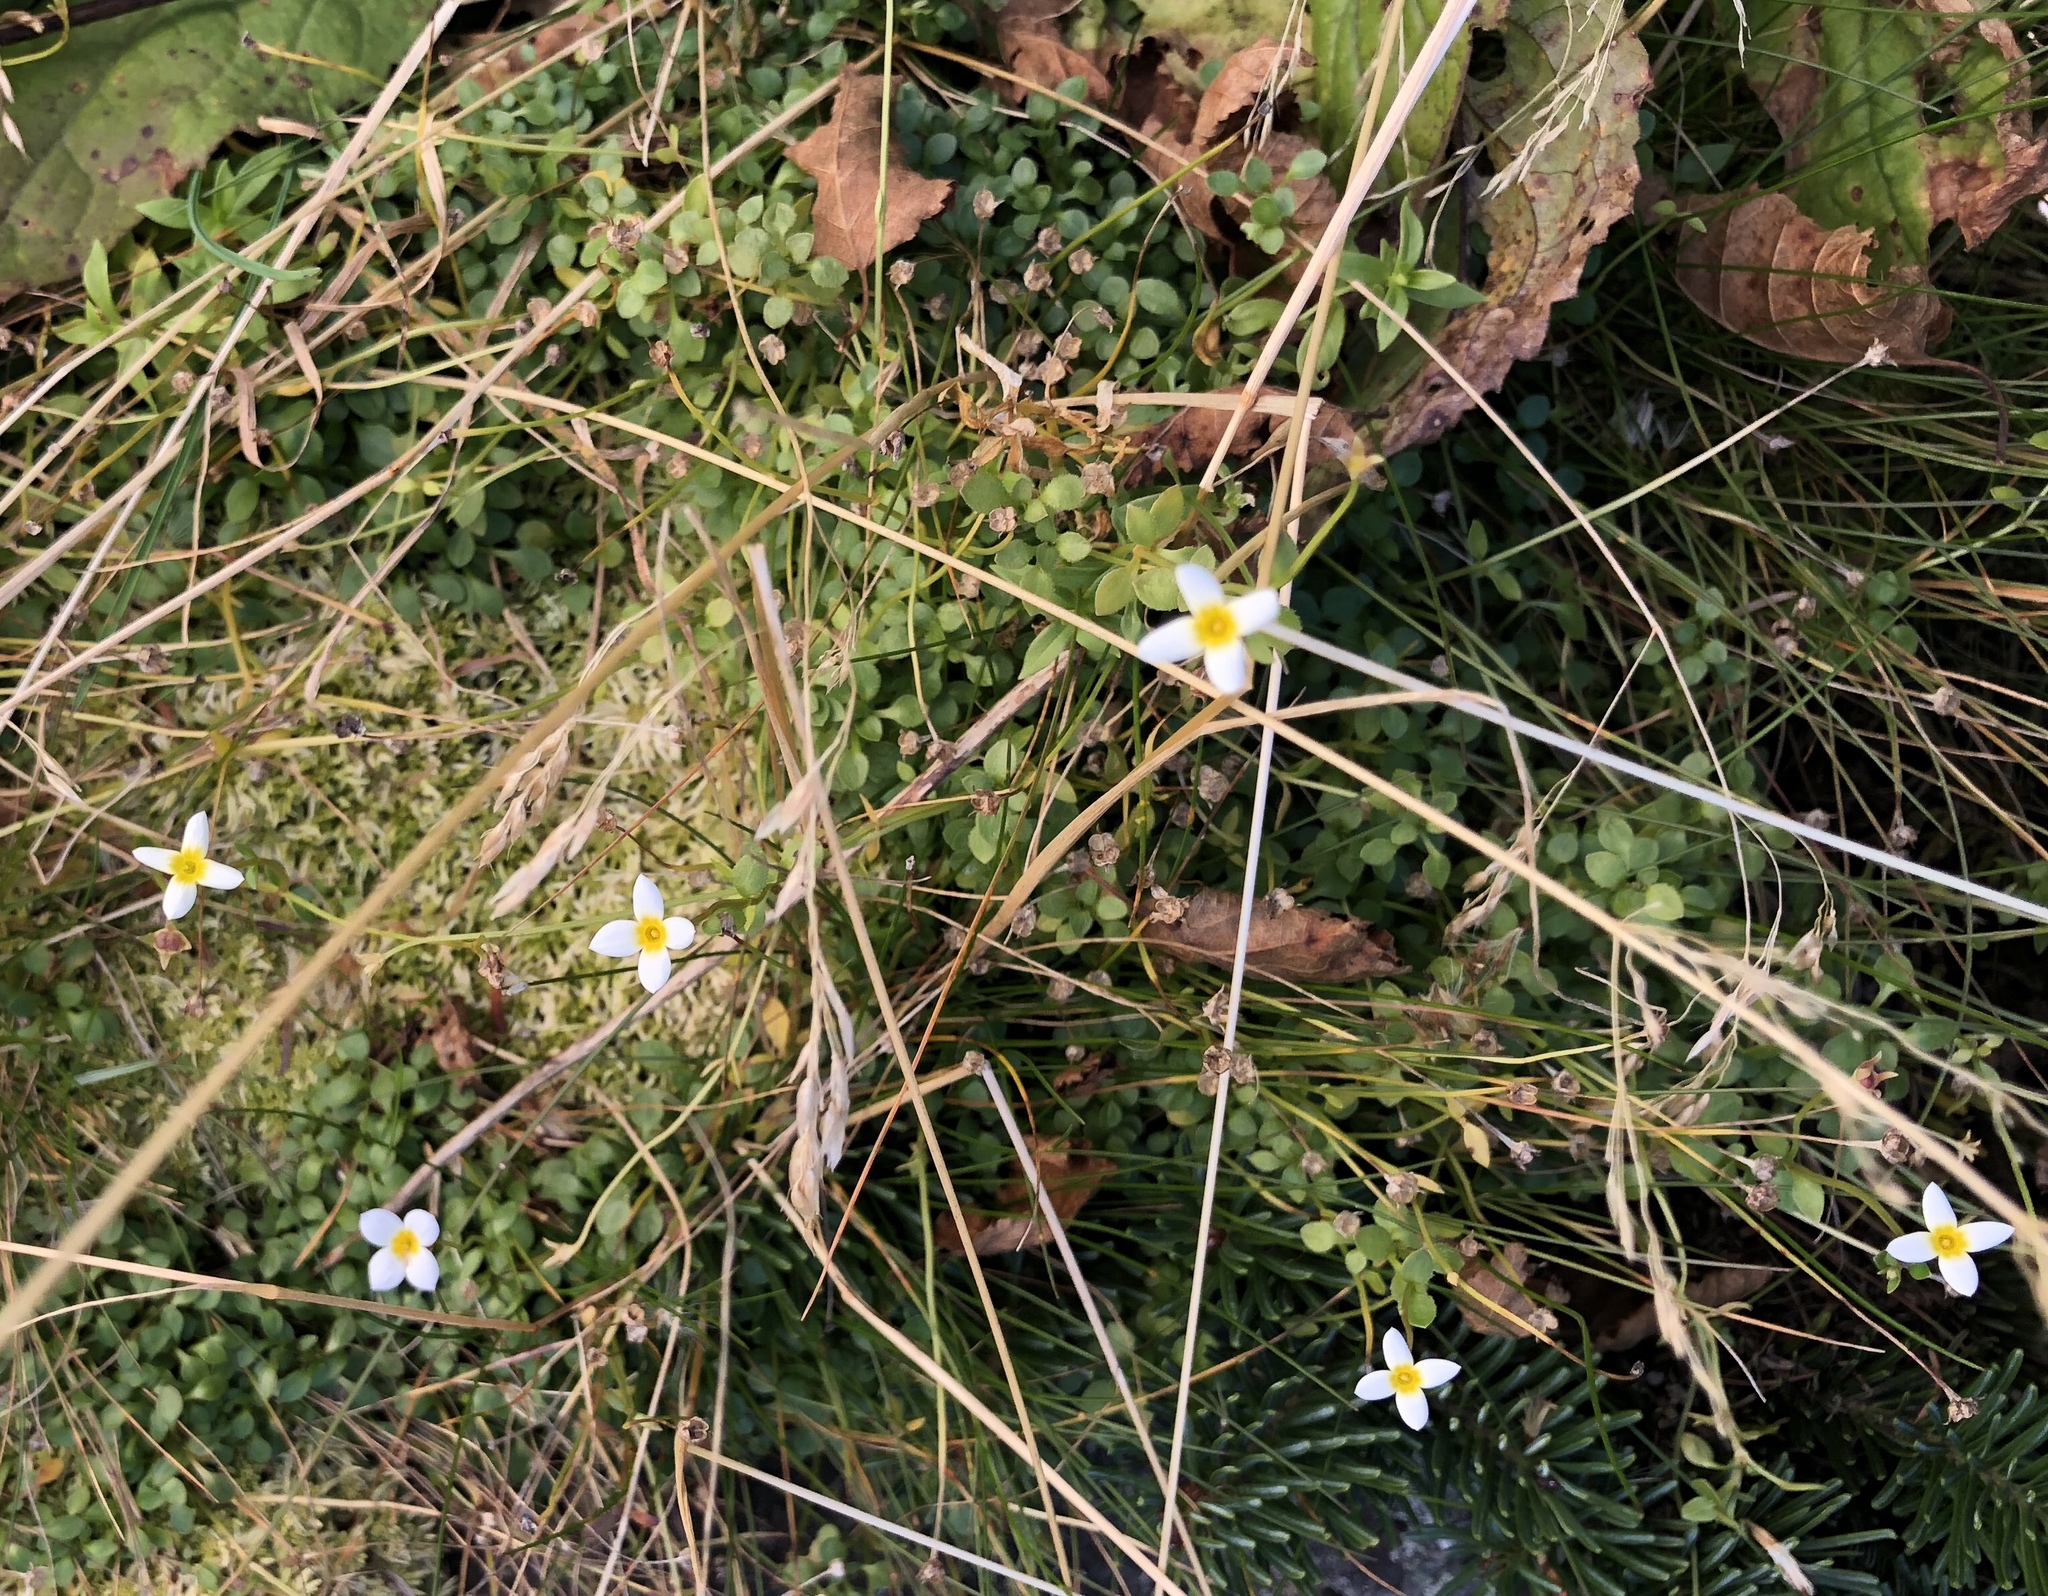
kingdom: Plantae
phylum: Tracheophyta
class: Magnoliopsida
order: Gentianales
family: Rubiaceae
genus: Houstonia
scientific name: Houstonia caerulea
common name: Bluets
